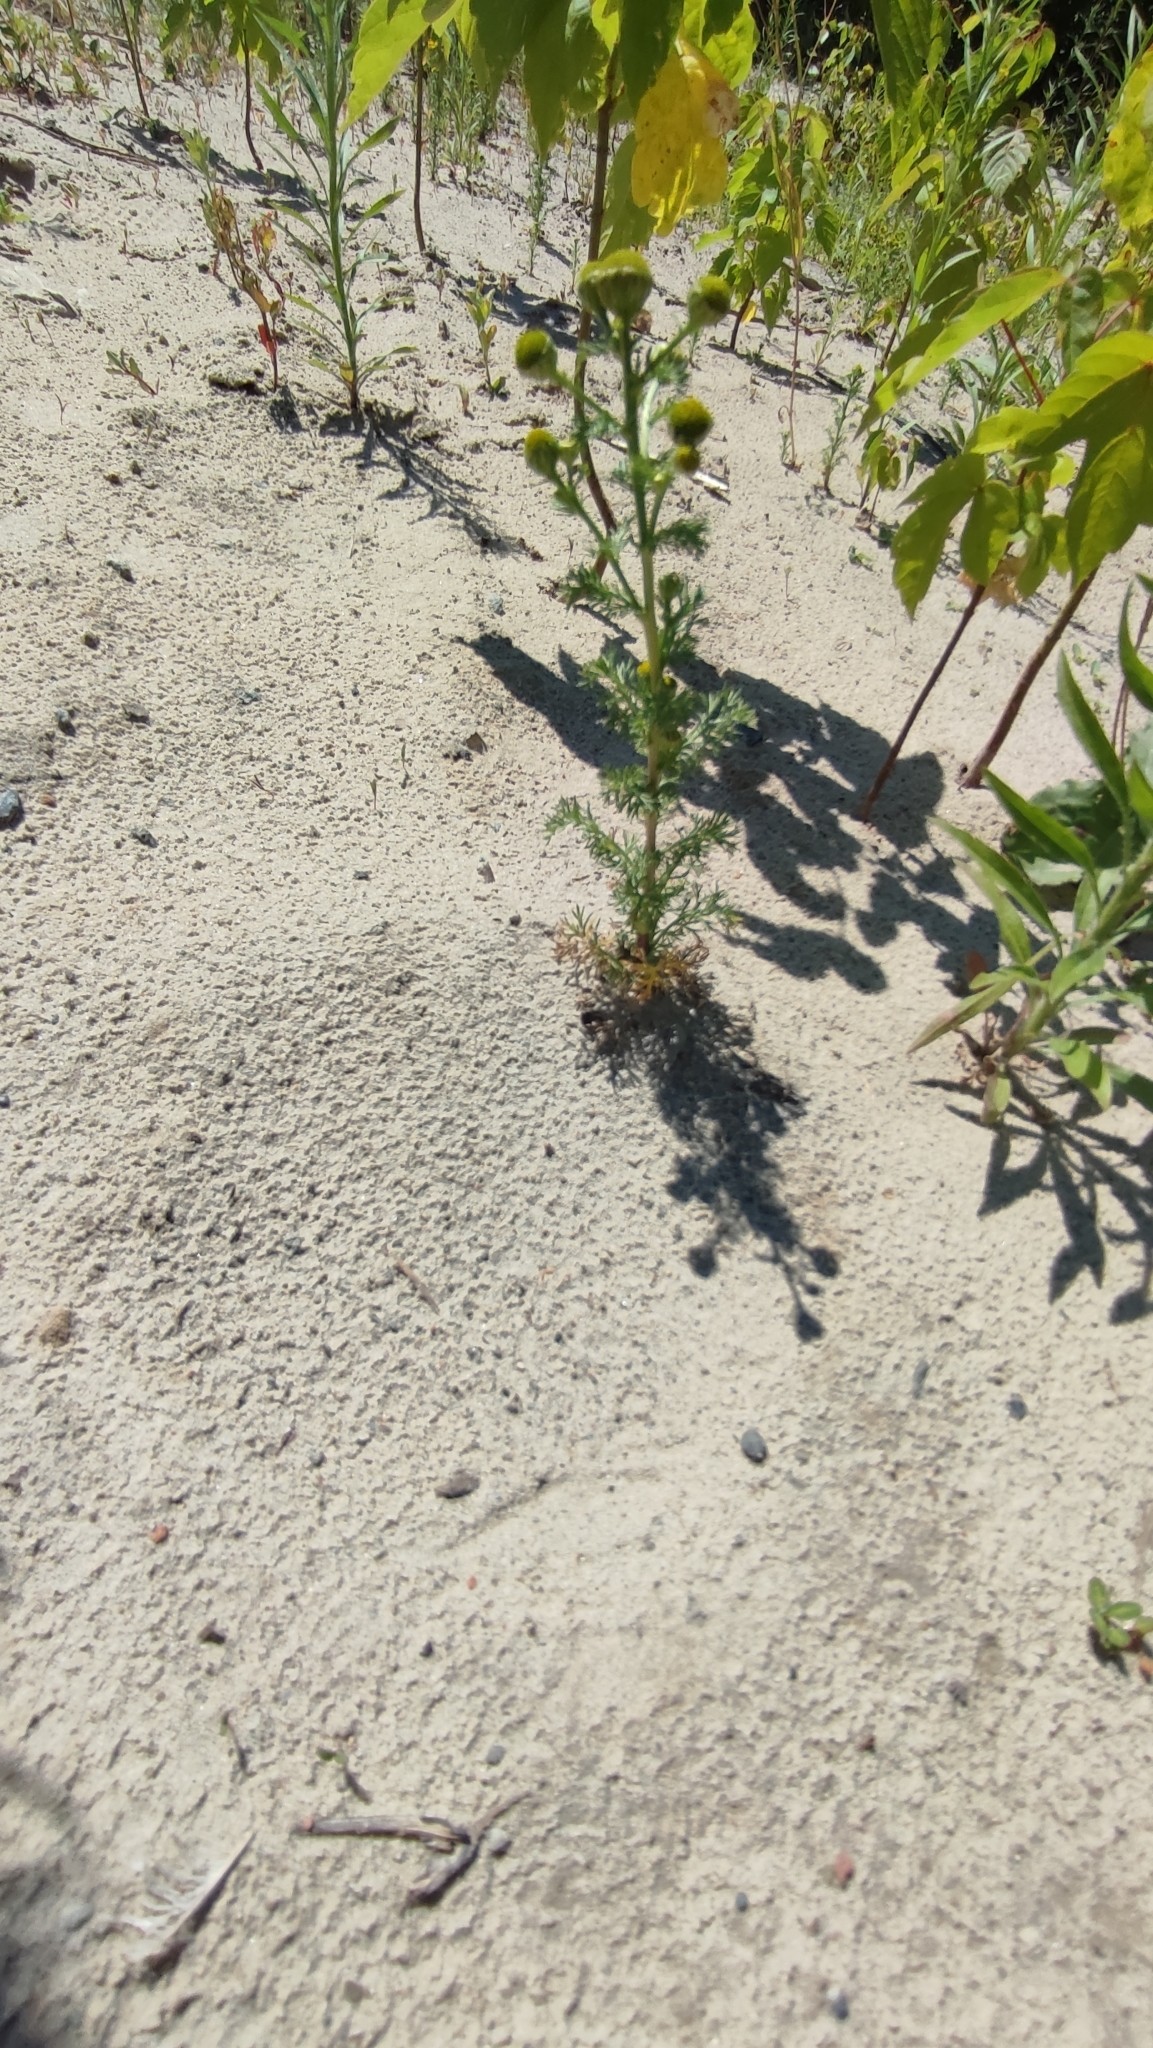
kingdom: Plantae
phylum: Tracheophyta
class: Magnoliopsida
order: Asterales
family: Asteraceae
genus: Matricaria
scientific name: Matricaria discoidea
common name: Disc mayweed
